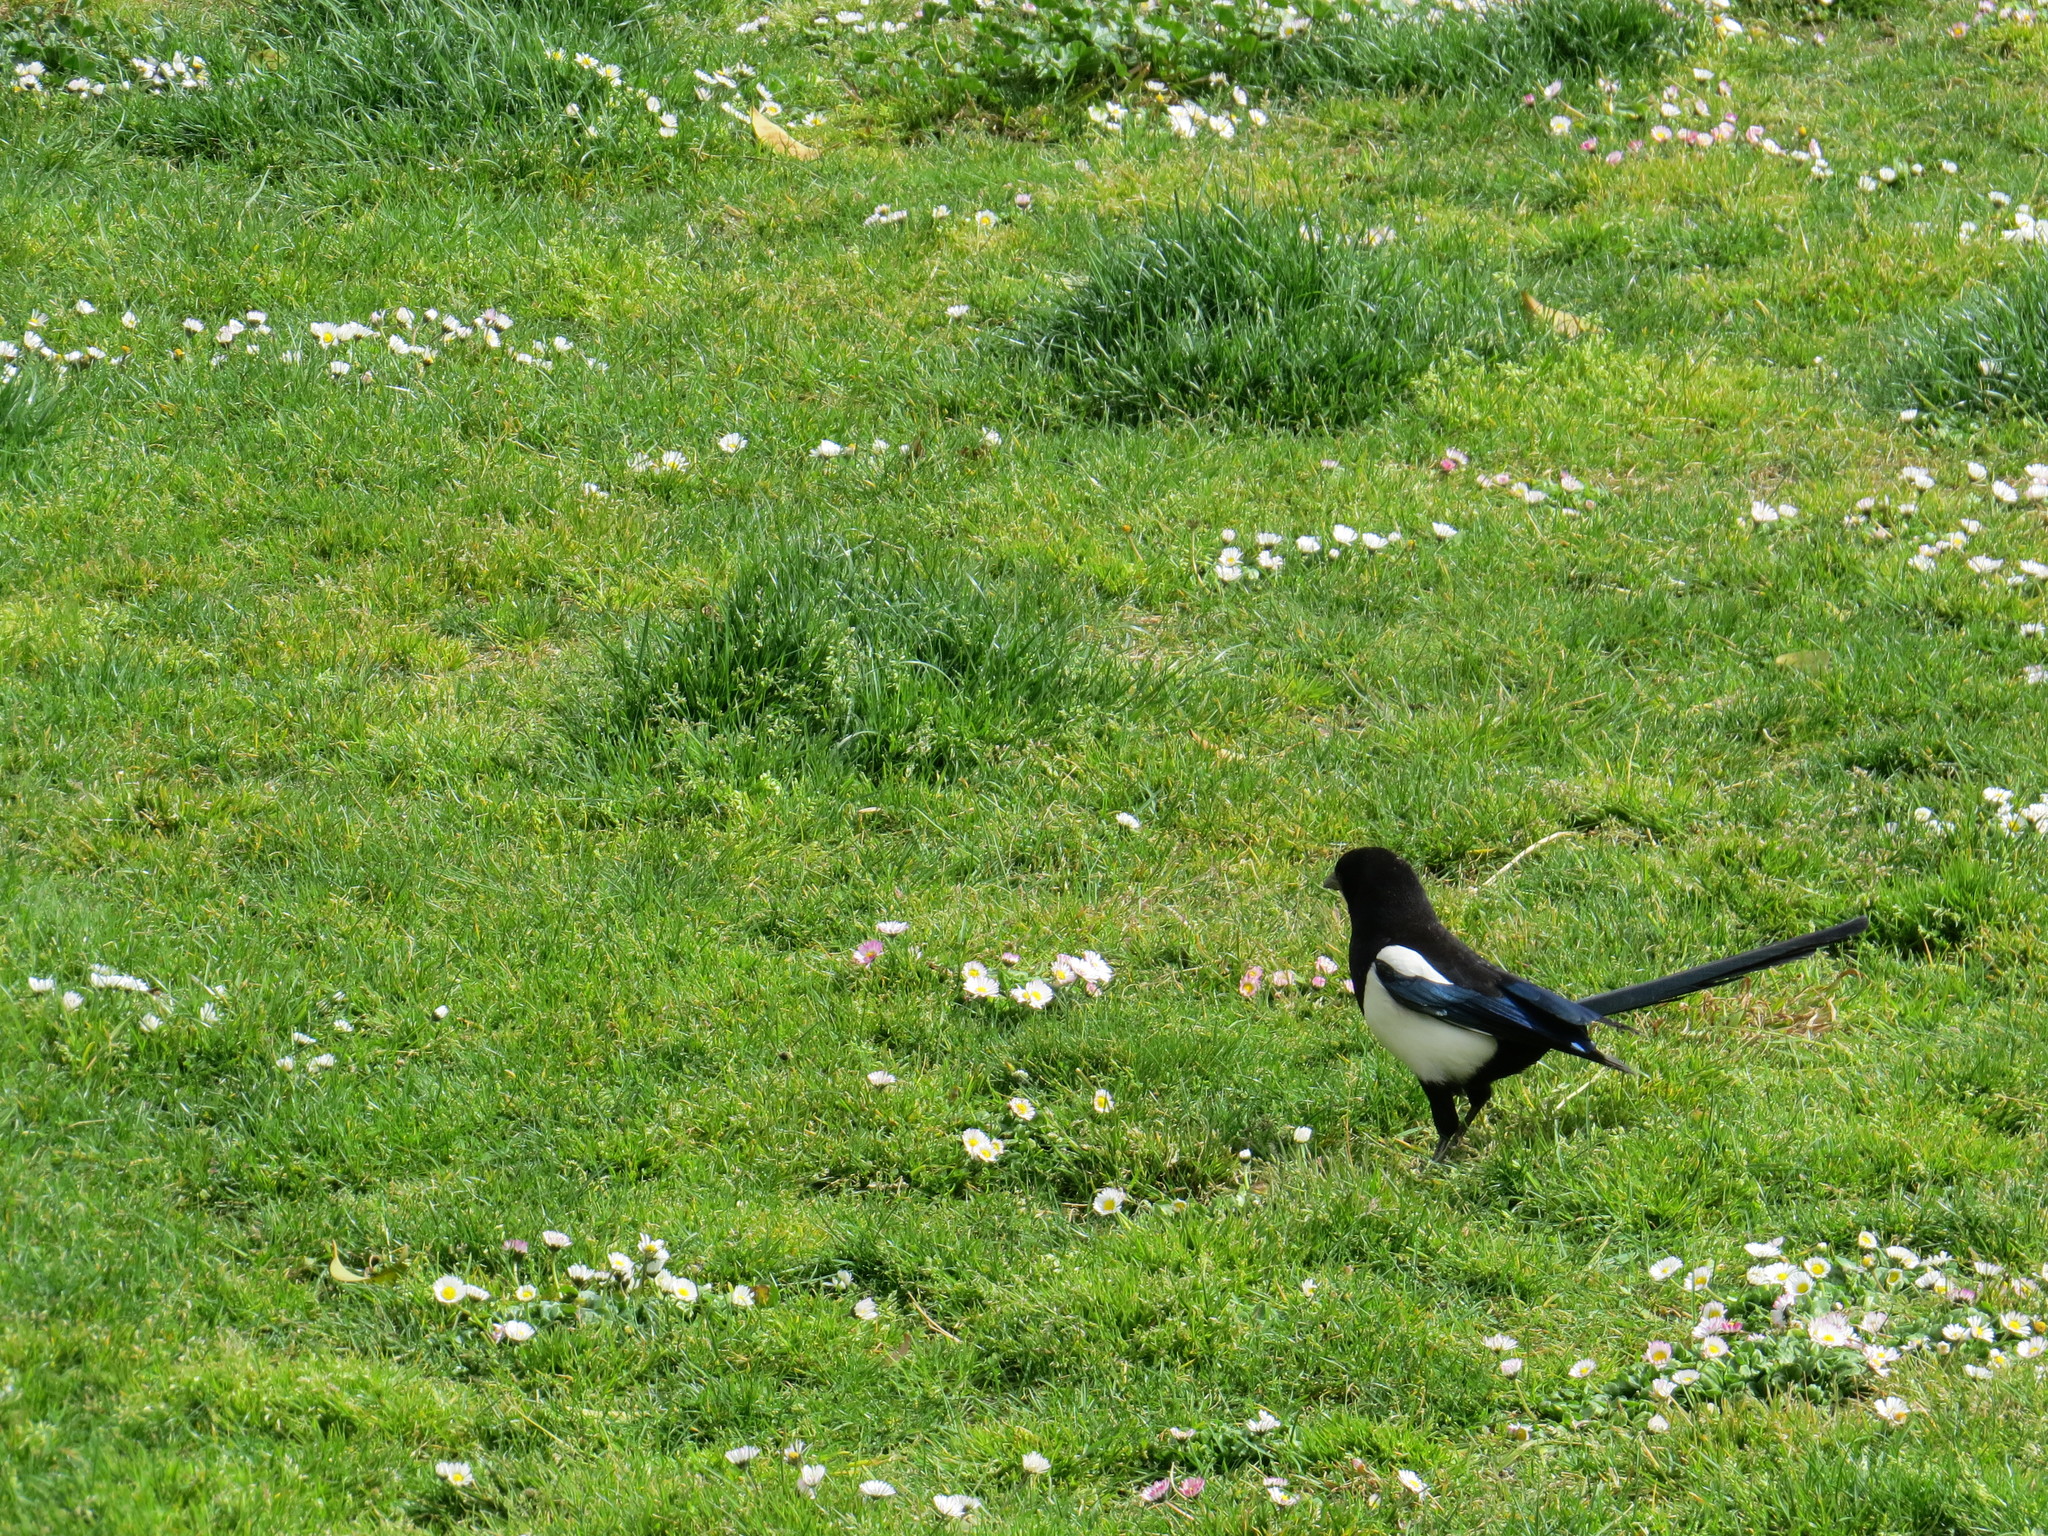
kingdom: Animalia
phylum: Chordata
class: Aves
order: Passeriformes
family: Corvidae
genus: Pica
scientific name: Pica pica
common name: Eurasian magpie
